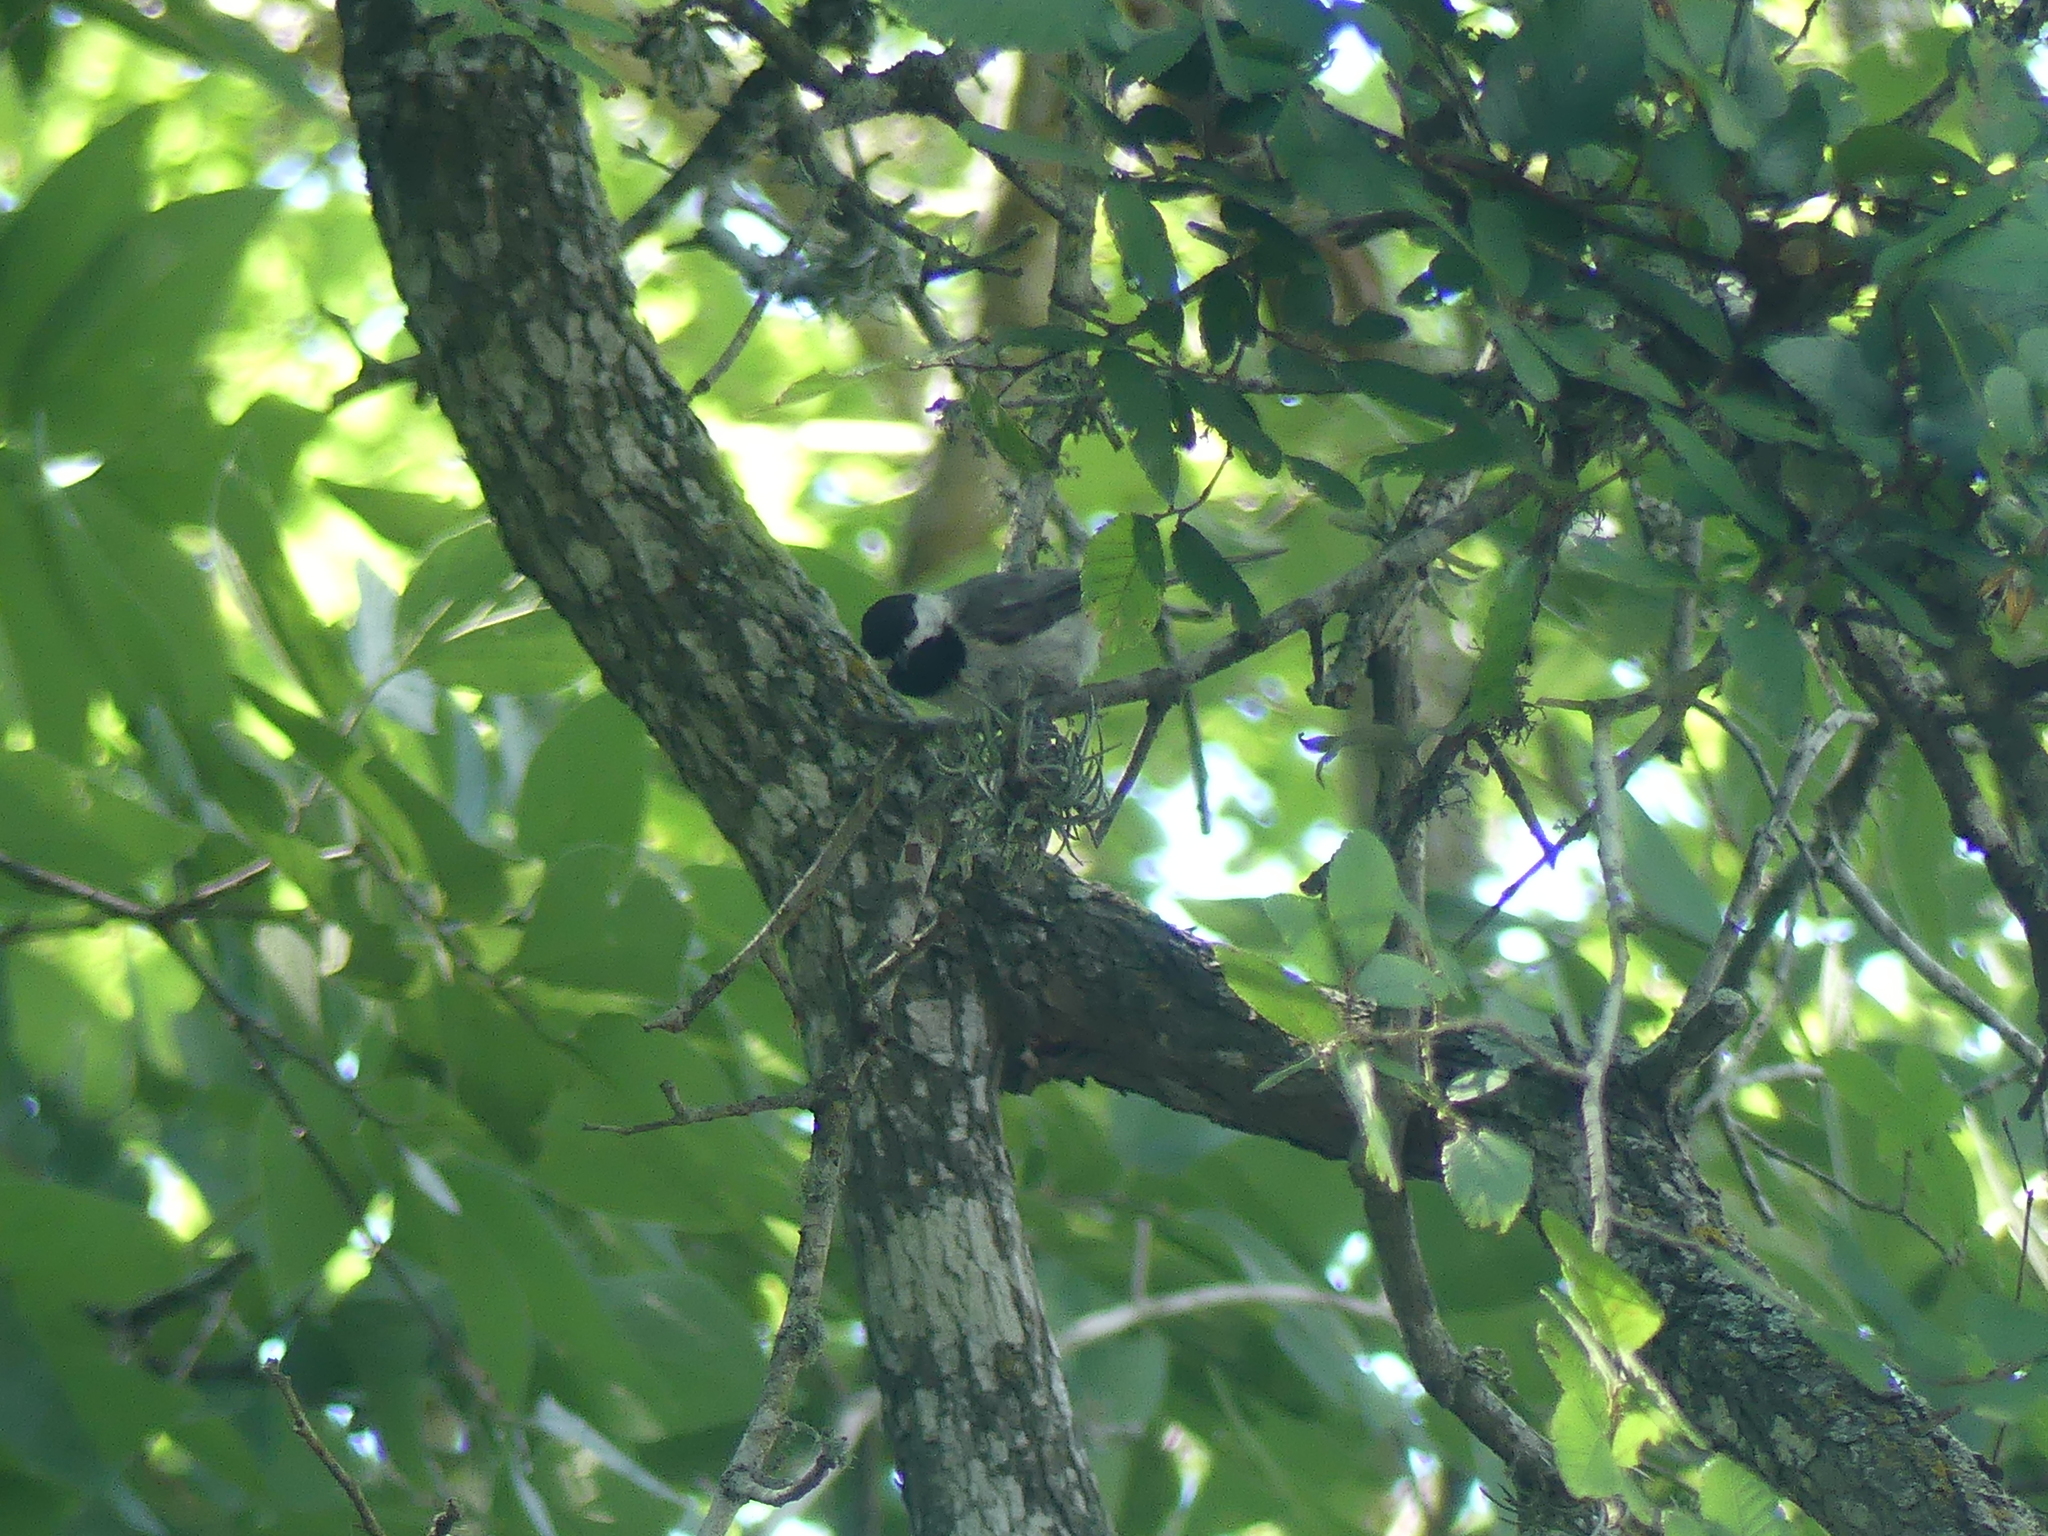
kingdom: Animalia
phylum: Chordata
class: Aves
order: Passeriformes
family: Paridae
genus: Poecile
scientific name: Poecile carolinensis
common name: Carolina chickadee
